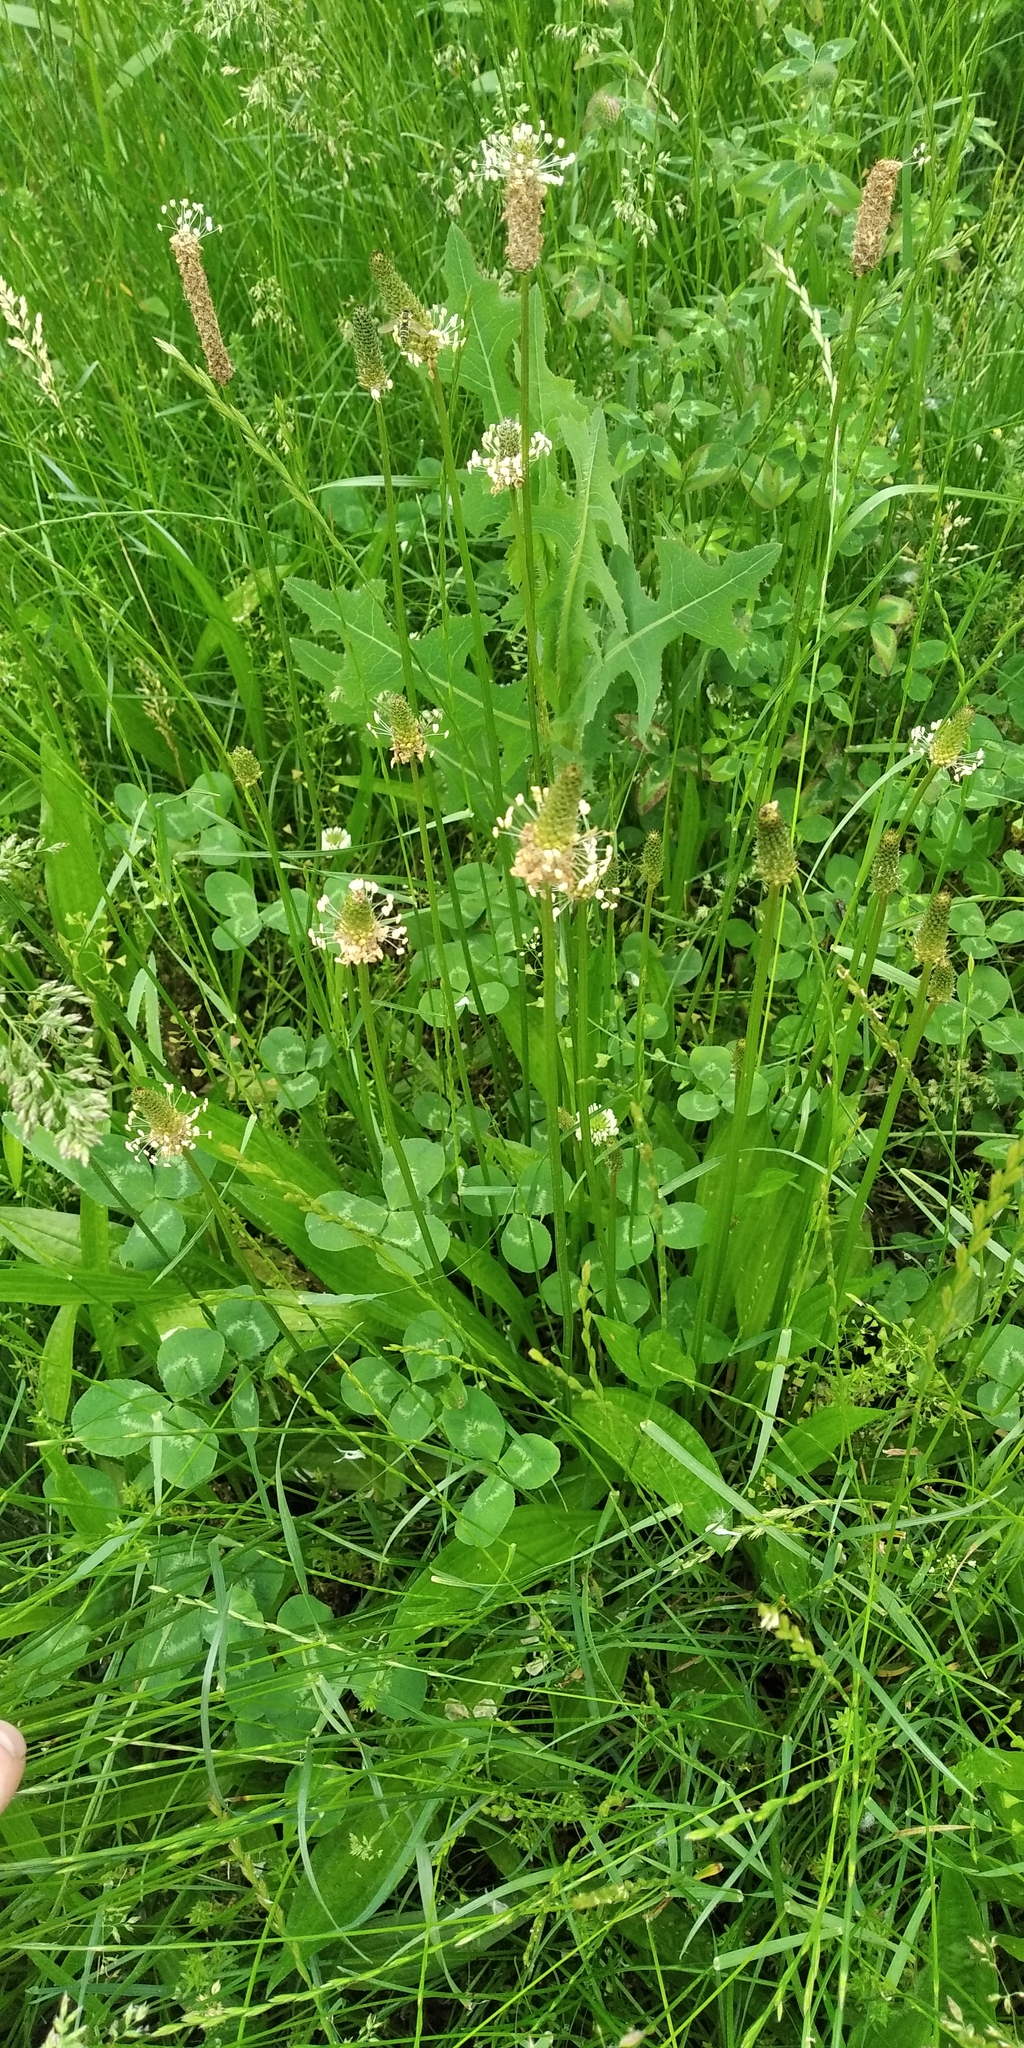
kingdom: Animalia
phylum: Arthropoda
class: Insecta
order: Coleoptera
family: Scarabaeidae
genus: Oxythyrea
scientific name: Oxythyrea funesta
